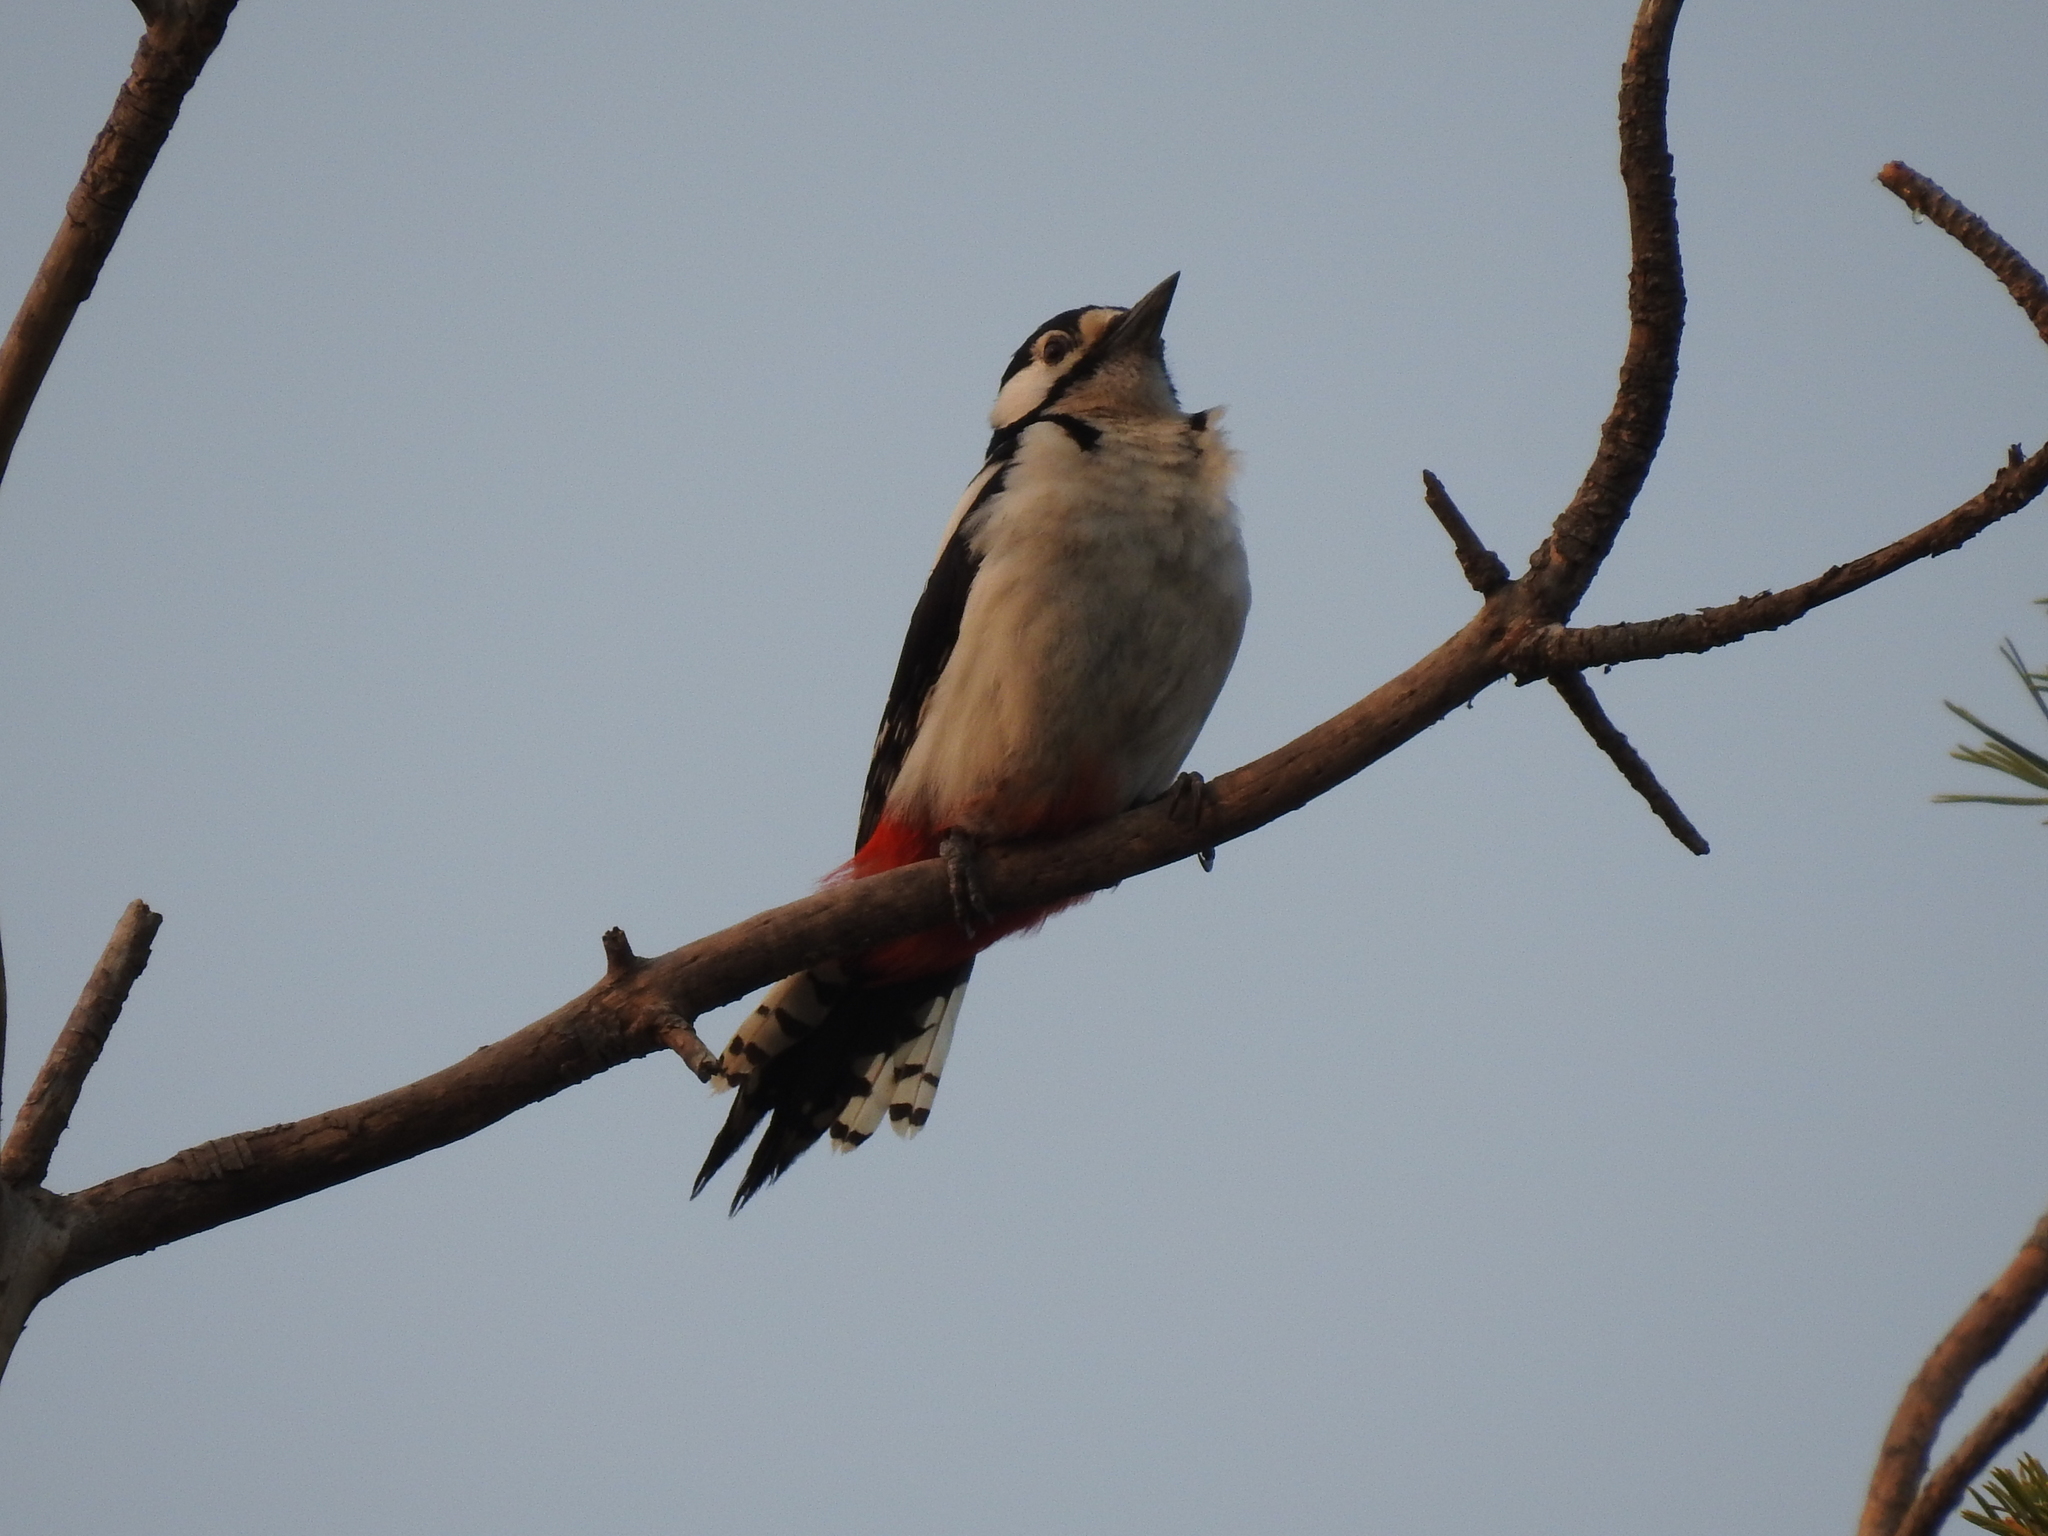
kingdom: Animalia
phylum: Chordata
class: Aves
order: Piciformes
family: Picidae
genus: Dendrocopos
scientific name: Dendrocopos major
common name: Great spotted woodpecker
